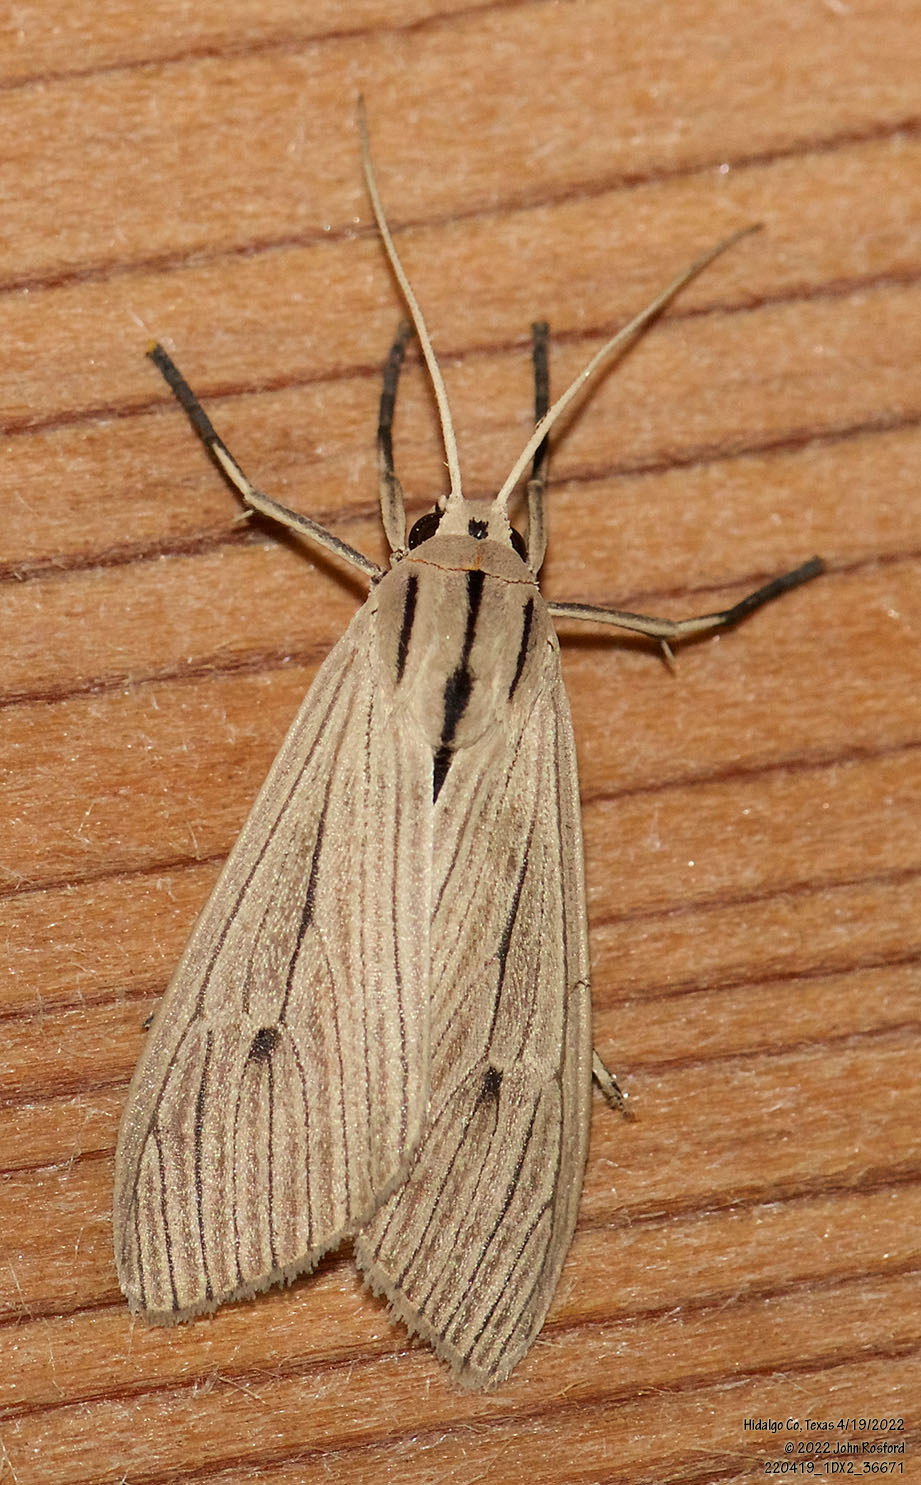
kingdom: Animalia
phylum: Arthropoda
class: Insecta
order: Lepidoptera
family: Erebidae
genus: Arctagyrta
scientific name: Arctagyrta Agaraea semivitrea
